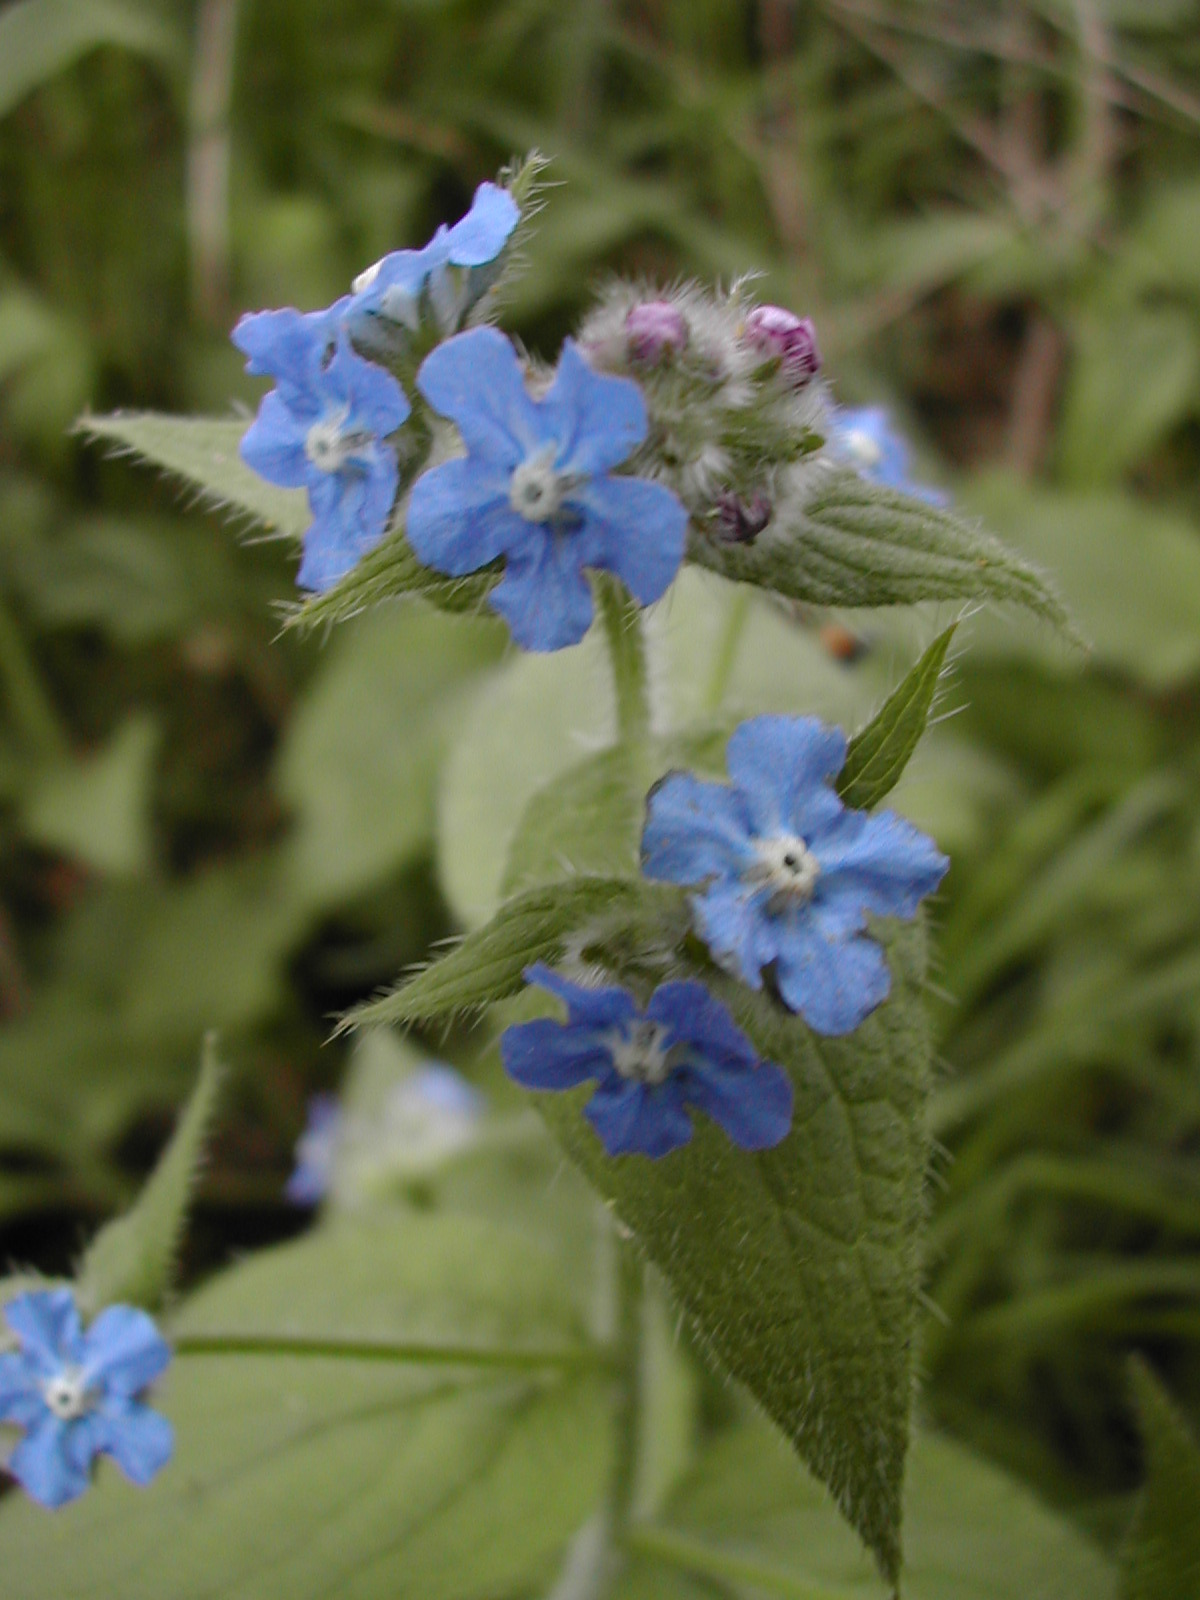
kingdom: Plantae
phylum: Tracheophyta
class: Magnoliopsida
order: Boraginales
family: Boraginaceae
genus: Pentaglottis
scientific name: Pentaglottis sempervirens
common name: Green alkanet
